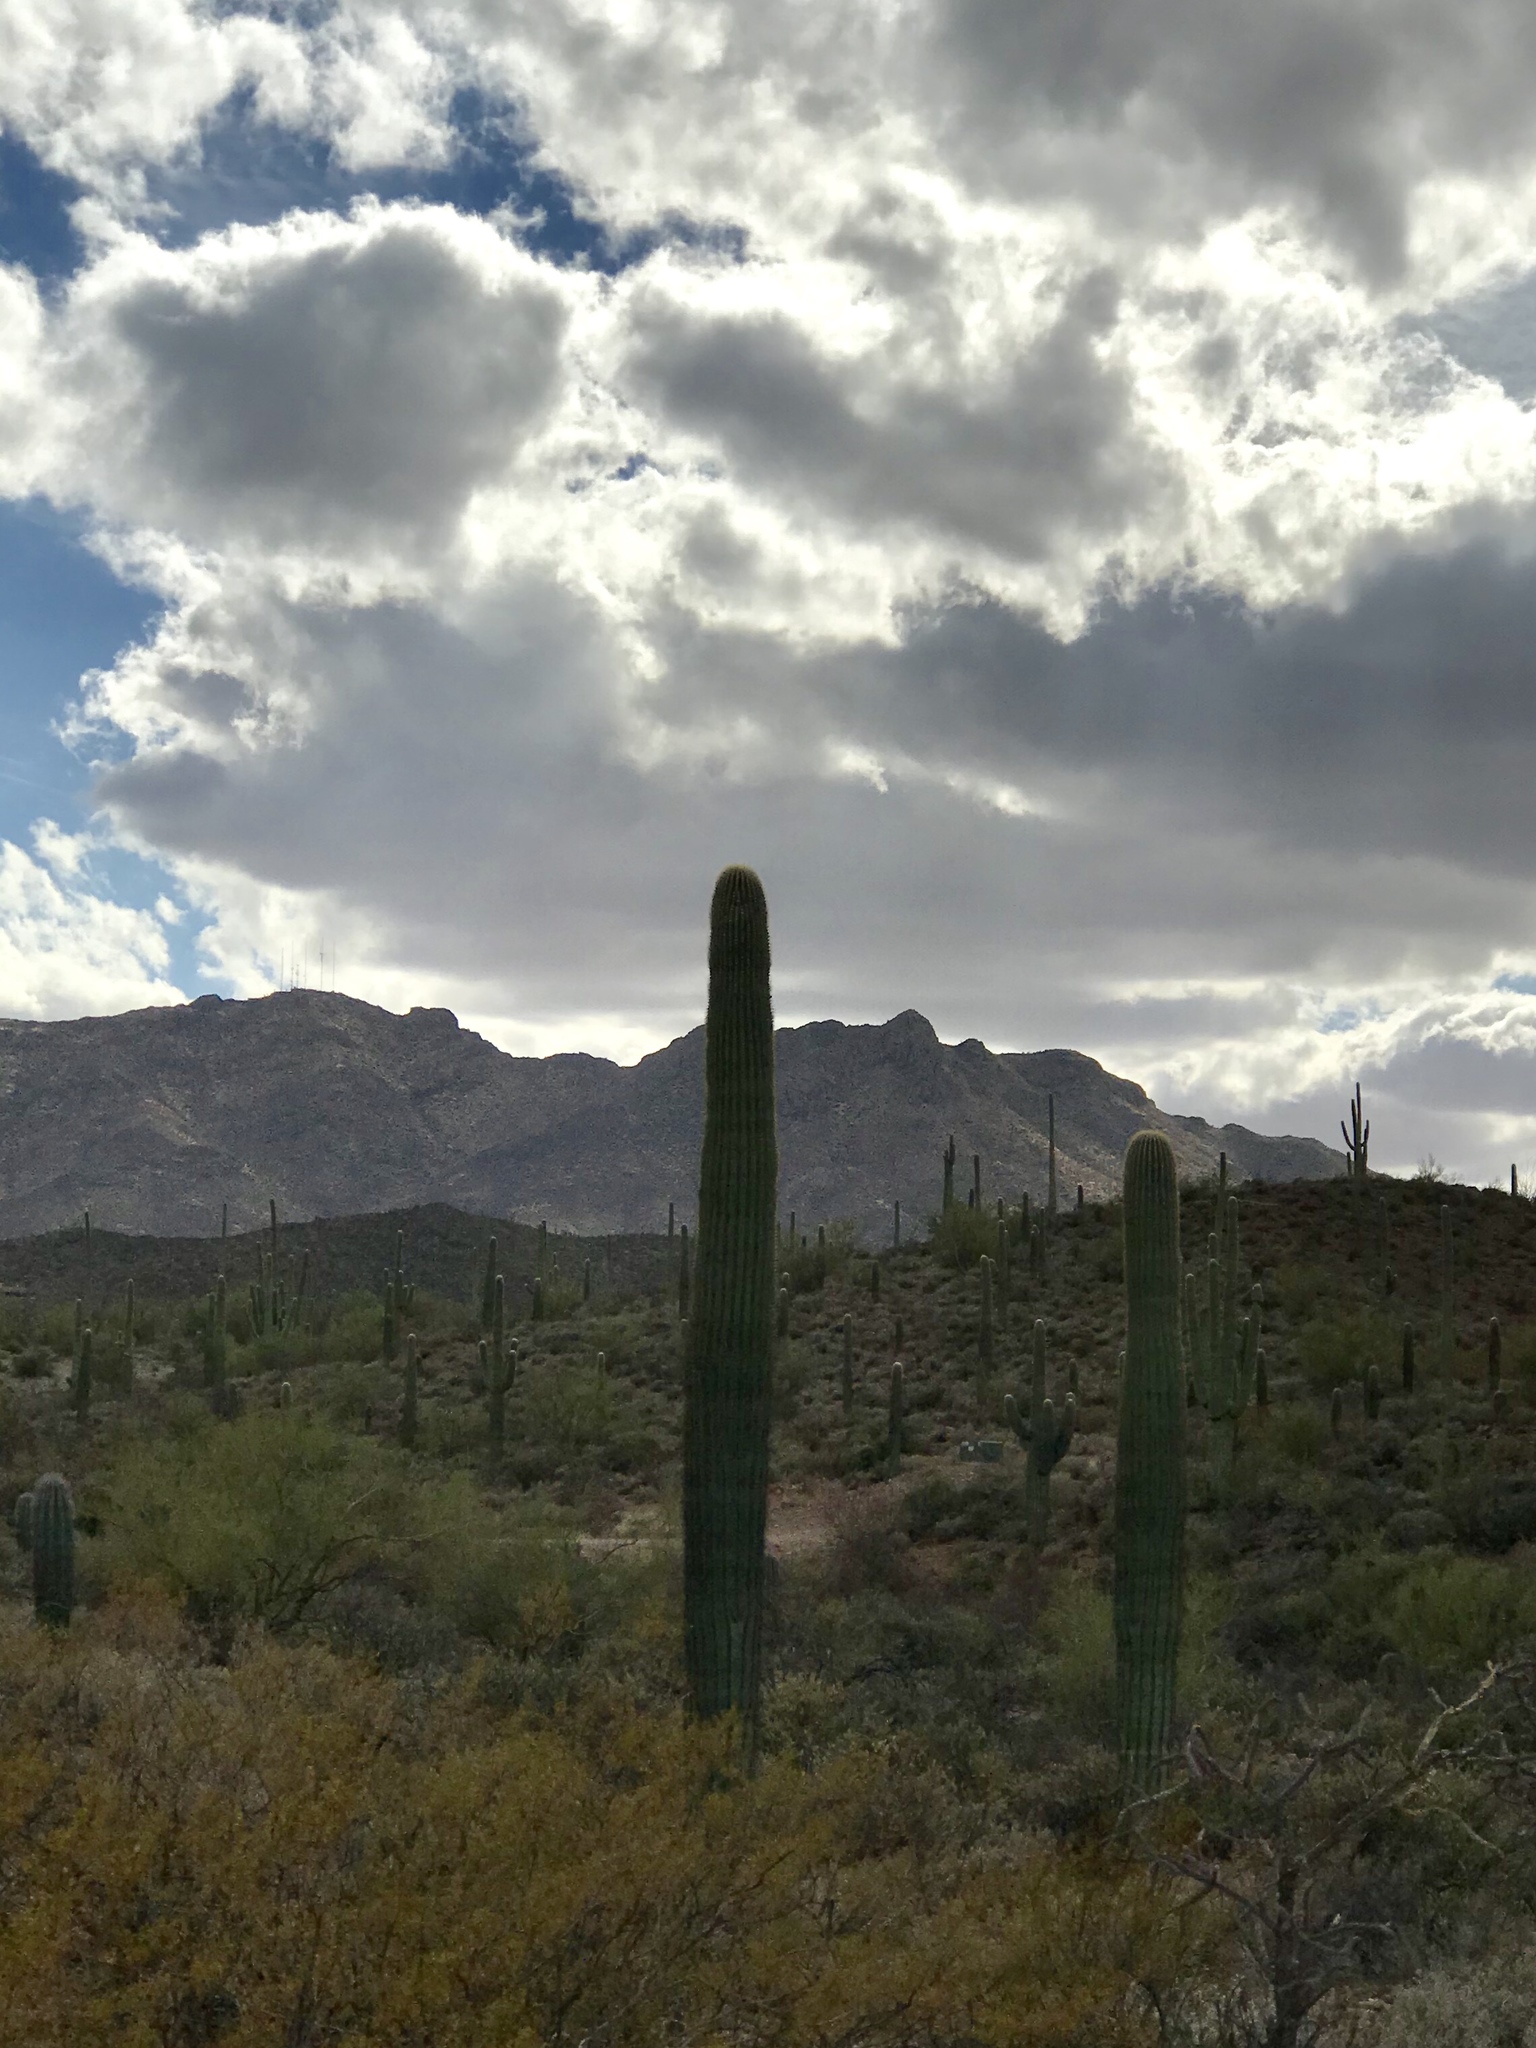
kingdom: Plantae
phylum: Tracheophyta
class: Magnoliopsida
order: Caryophyllales
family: Cactaceae
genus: Carnegiea
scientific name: Carnegiea gigantea
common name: Saguaro
